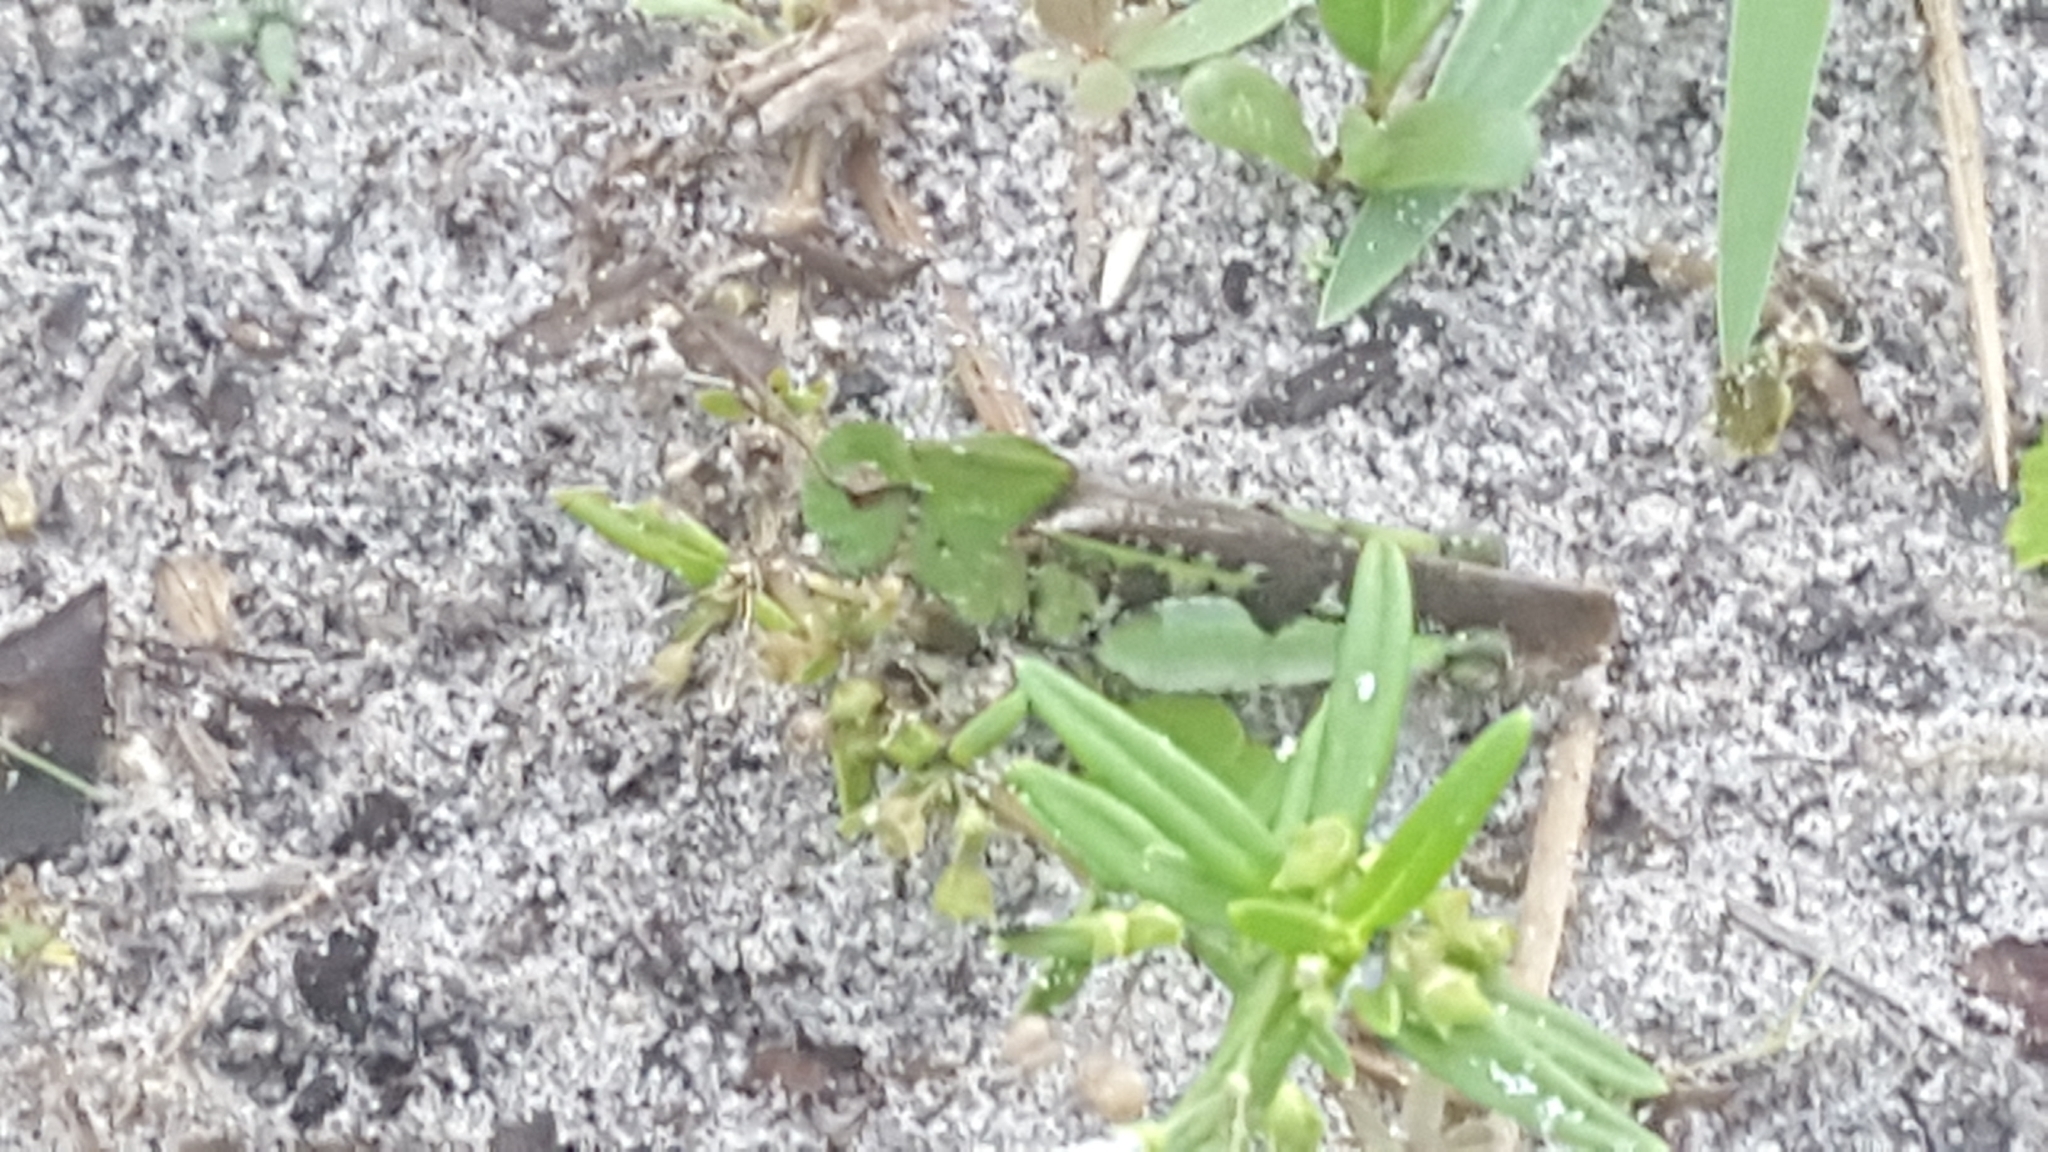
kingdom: Animalia
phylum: Arthropoda
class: Insecta
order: Orthoptera
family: Acrididae
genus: Chortophaga
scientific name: Chortophaga australior
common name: Southern green-striped grasshopper
